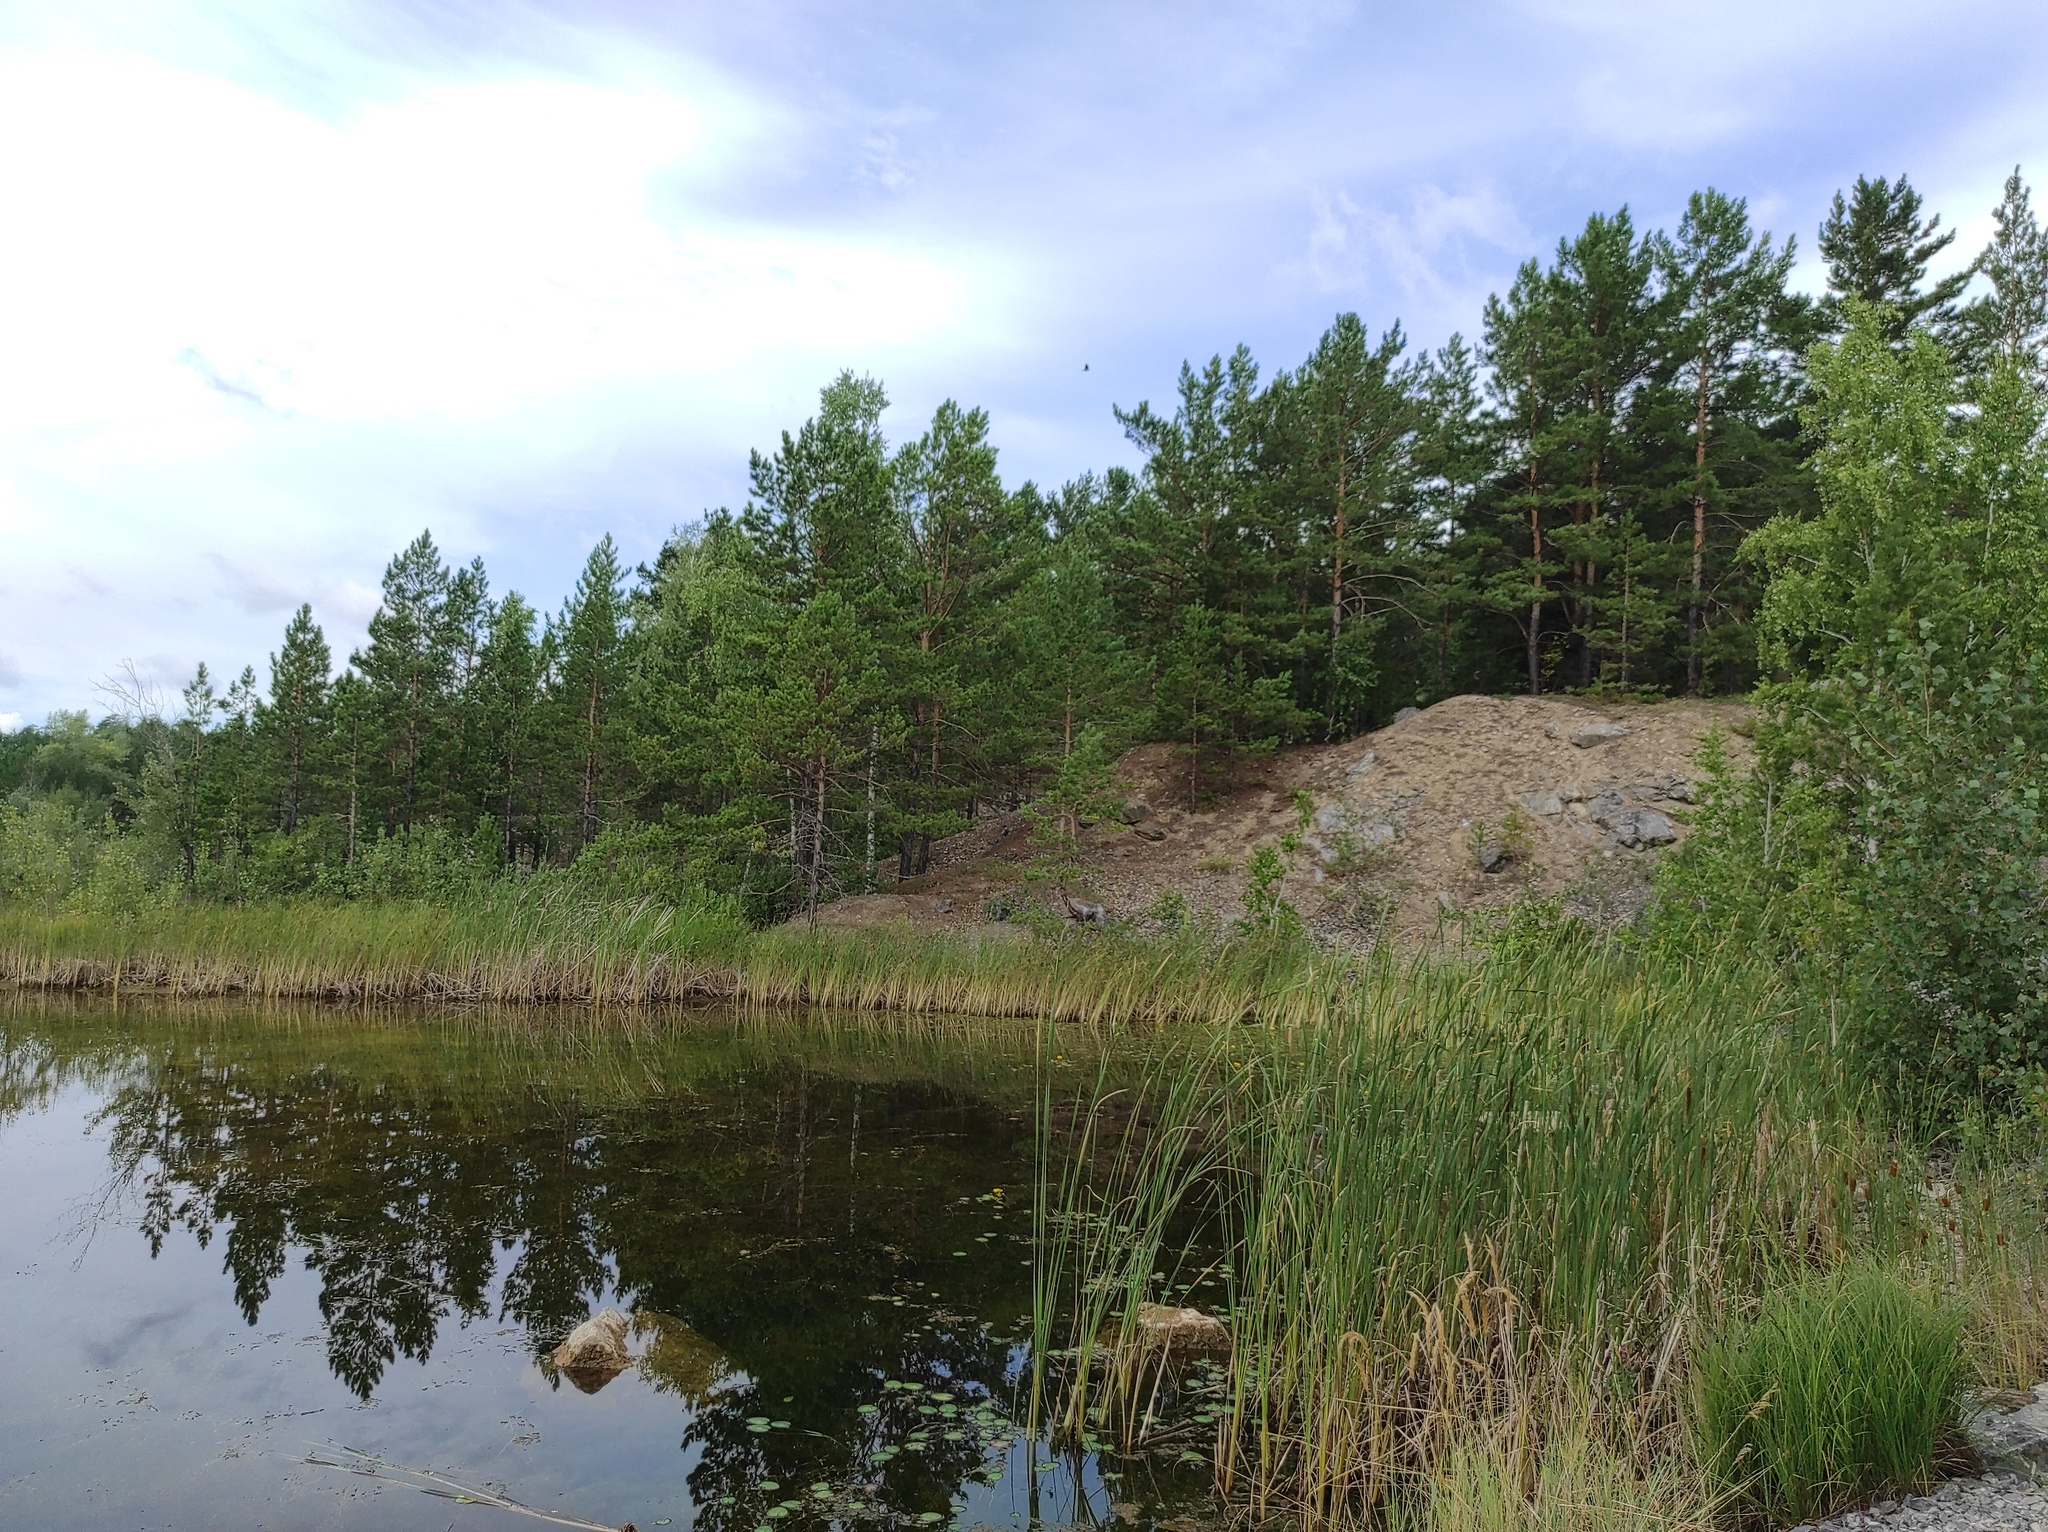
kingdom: Plantae
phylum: Tracheophyta
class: Pinopsida
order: Pinales
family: Pinaceae
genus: Pinus
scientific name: Pinus sylvestris
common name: Scots pine
